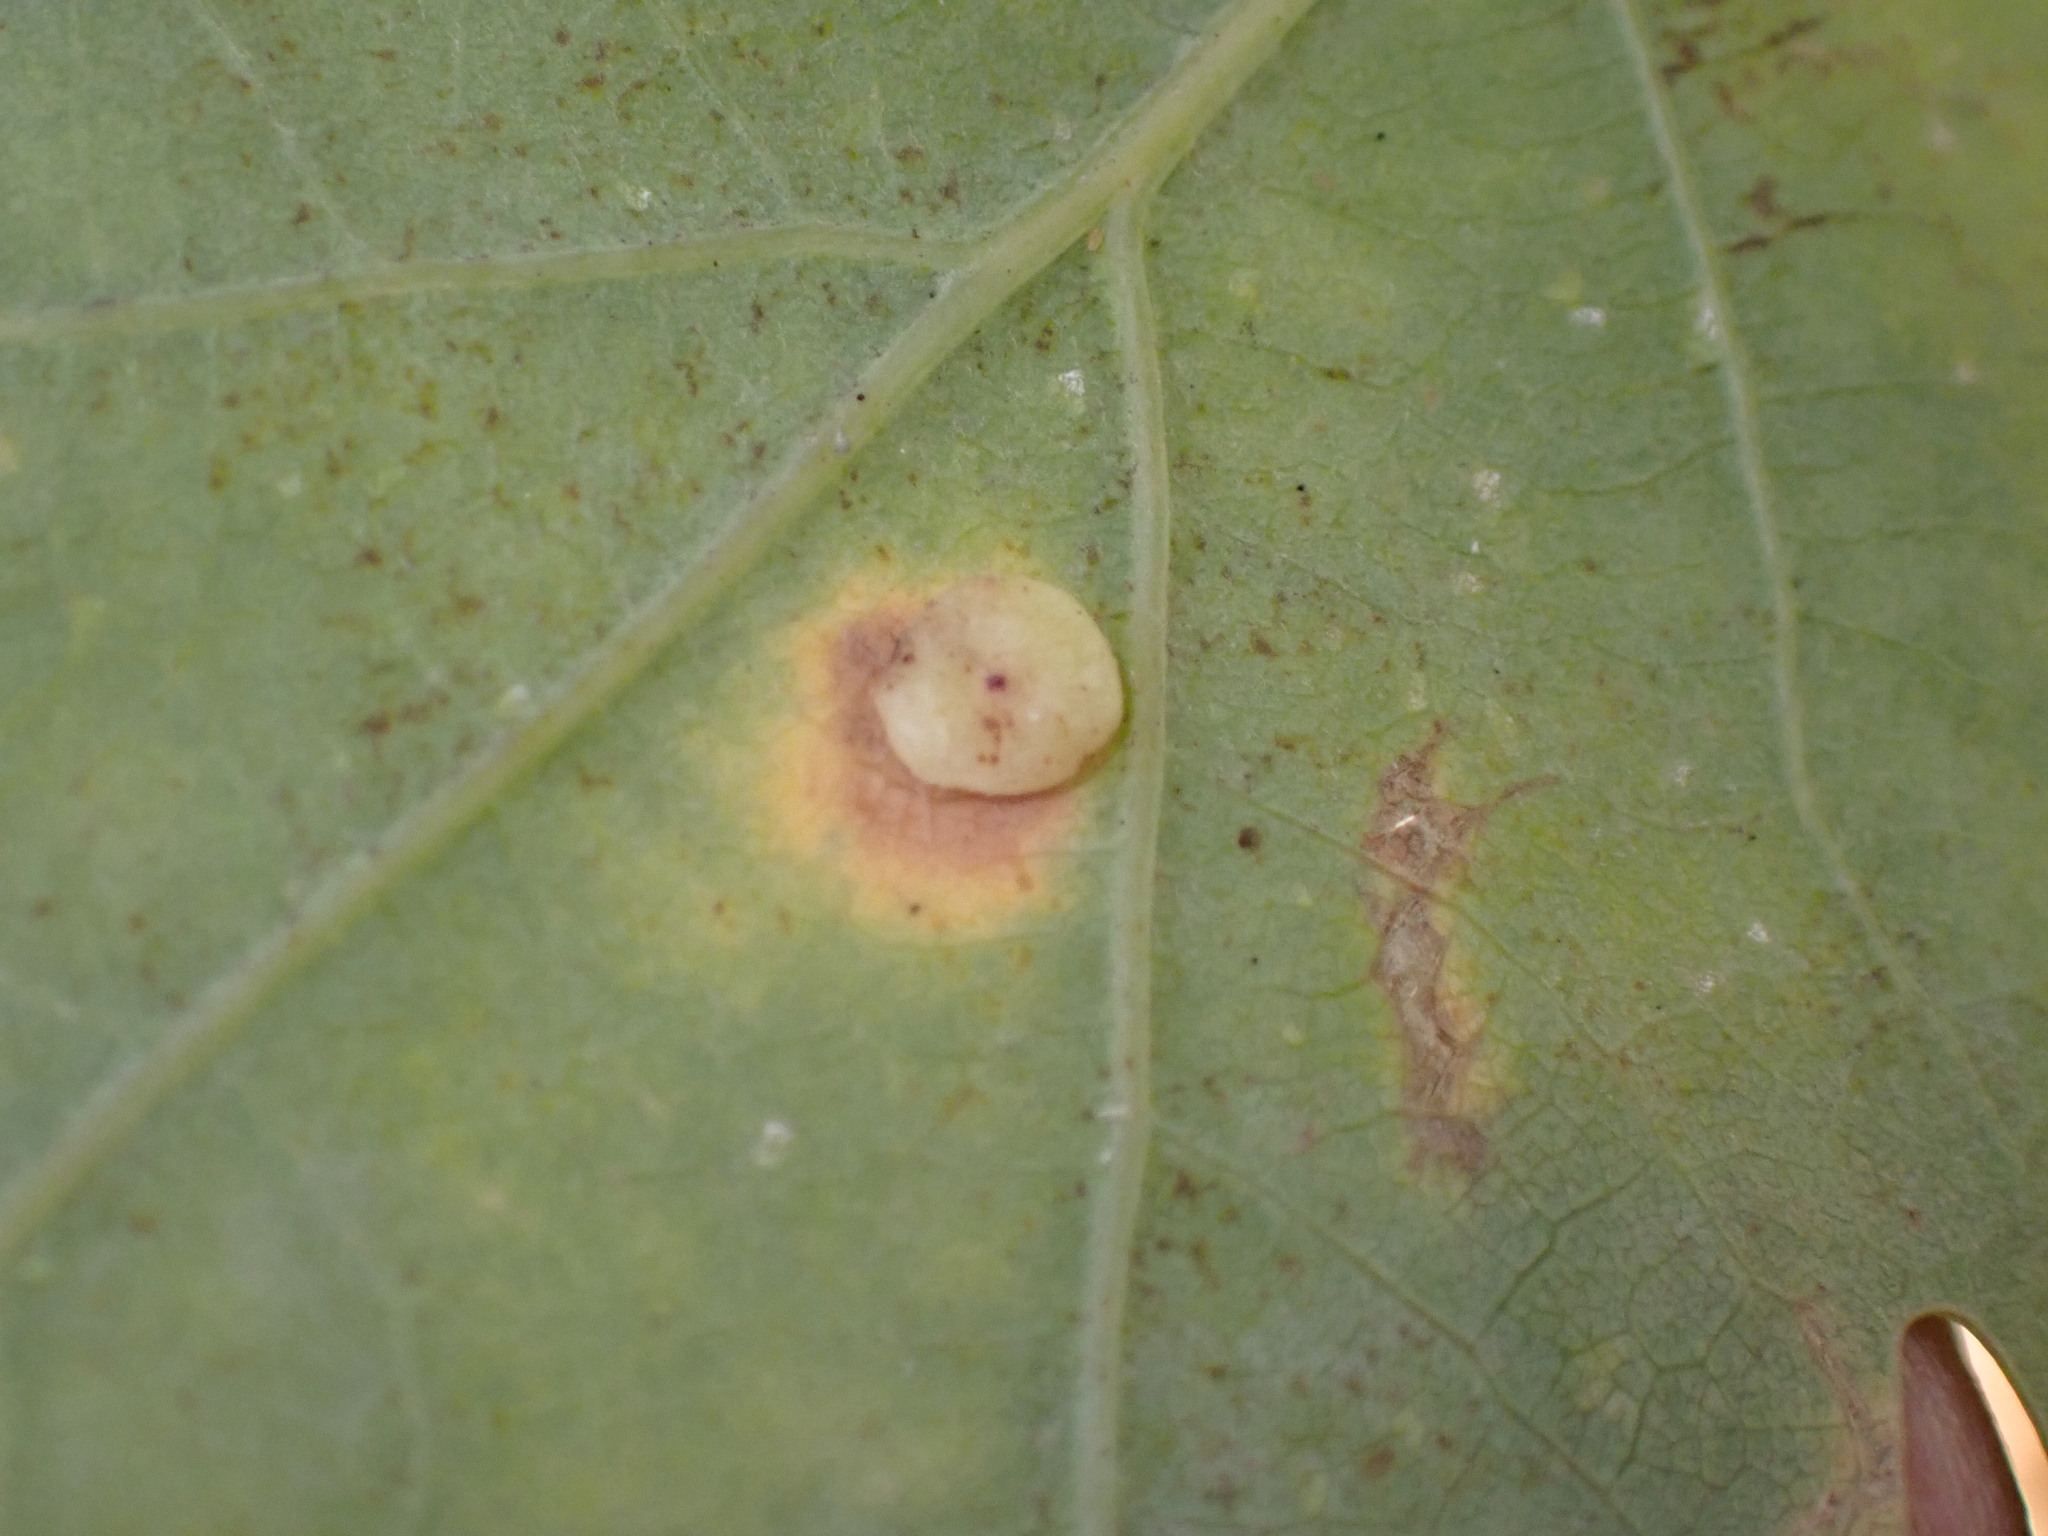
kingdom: Animalia
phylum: Arthropoda
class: Insecta
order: Hymenoptera
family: Cynipidae
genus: Neuroterus
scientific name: Neuroterus albipes
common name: Smooth spangle gall
